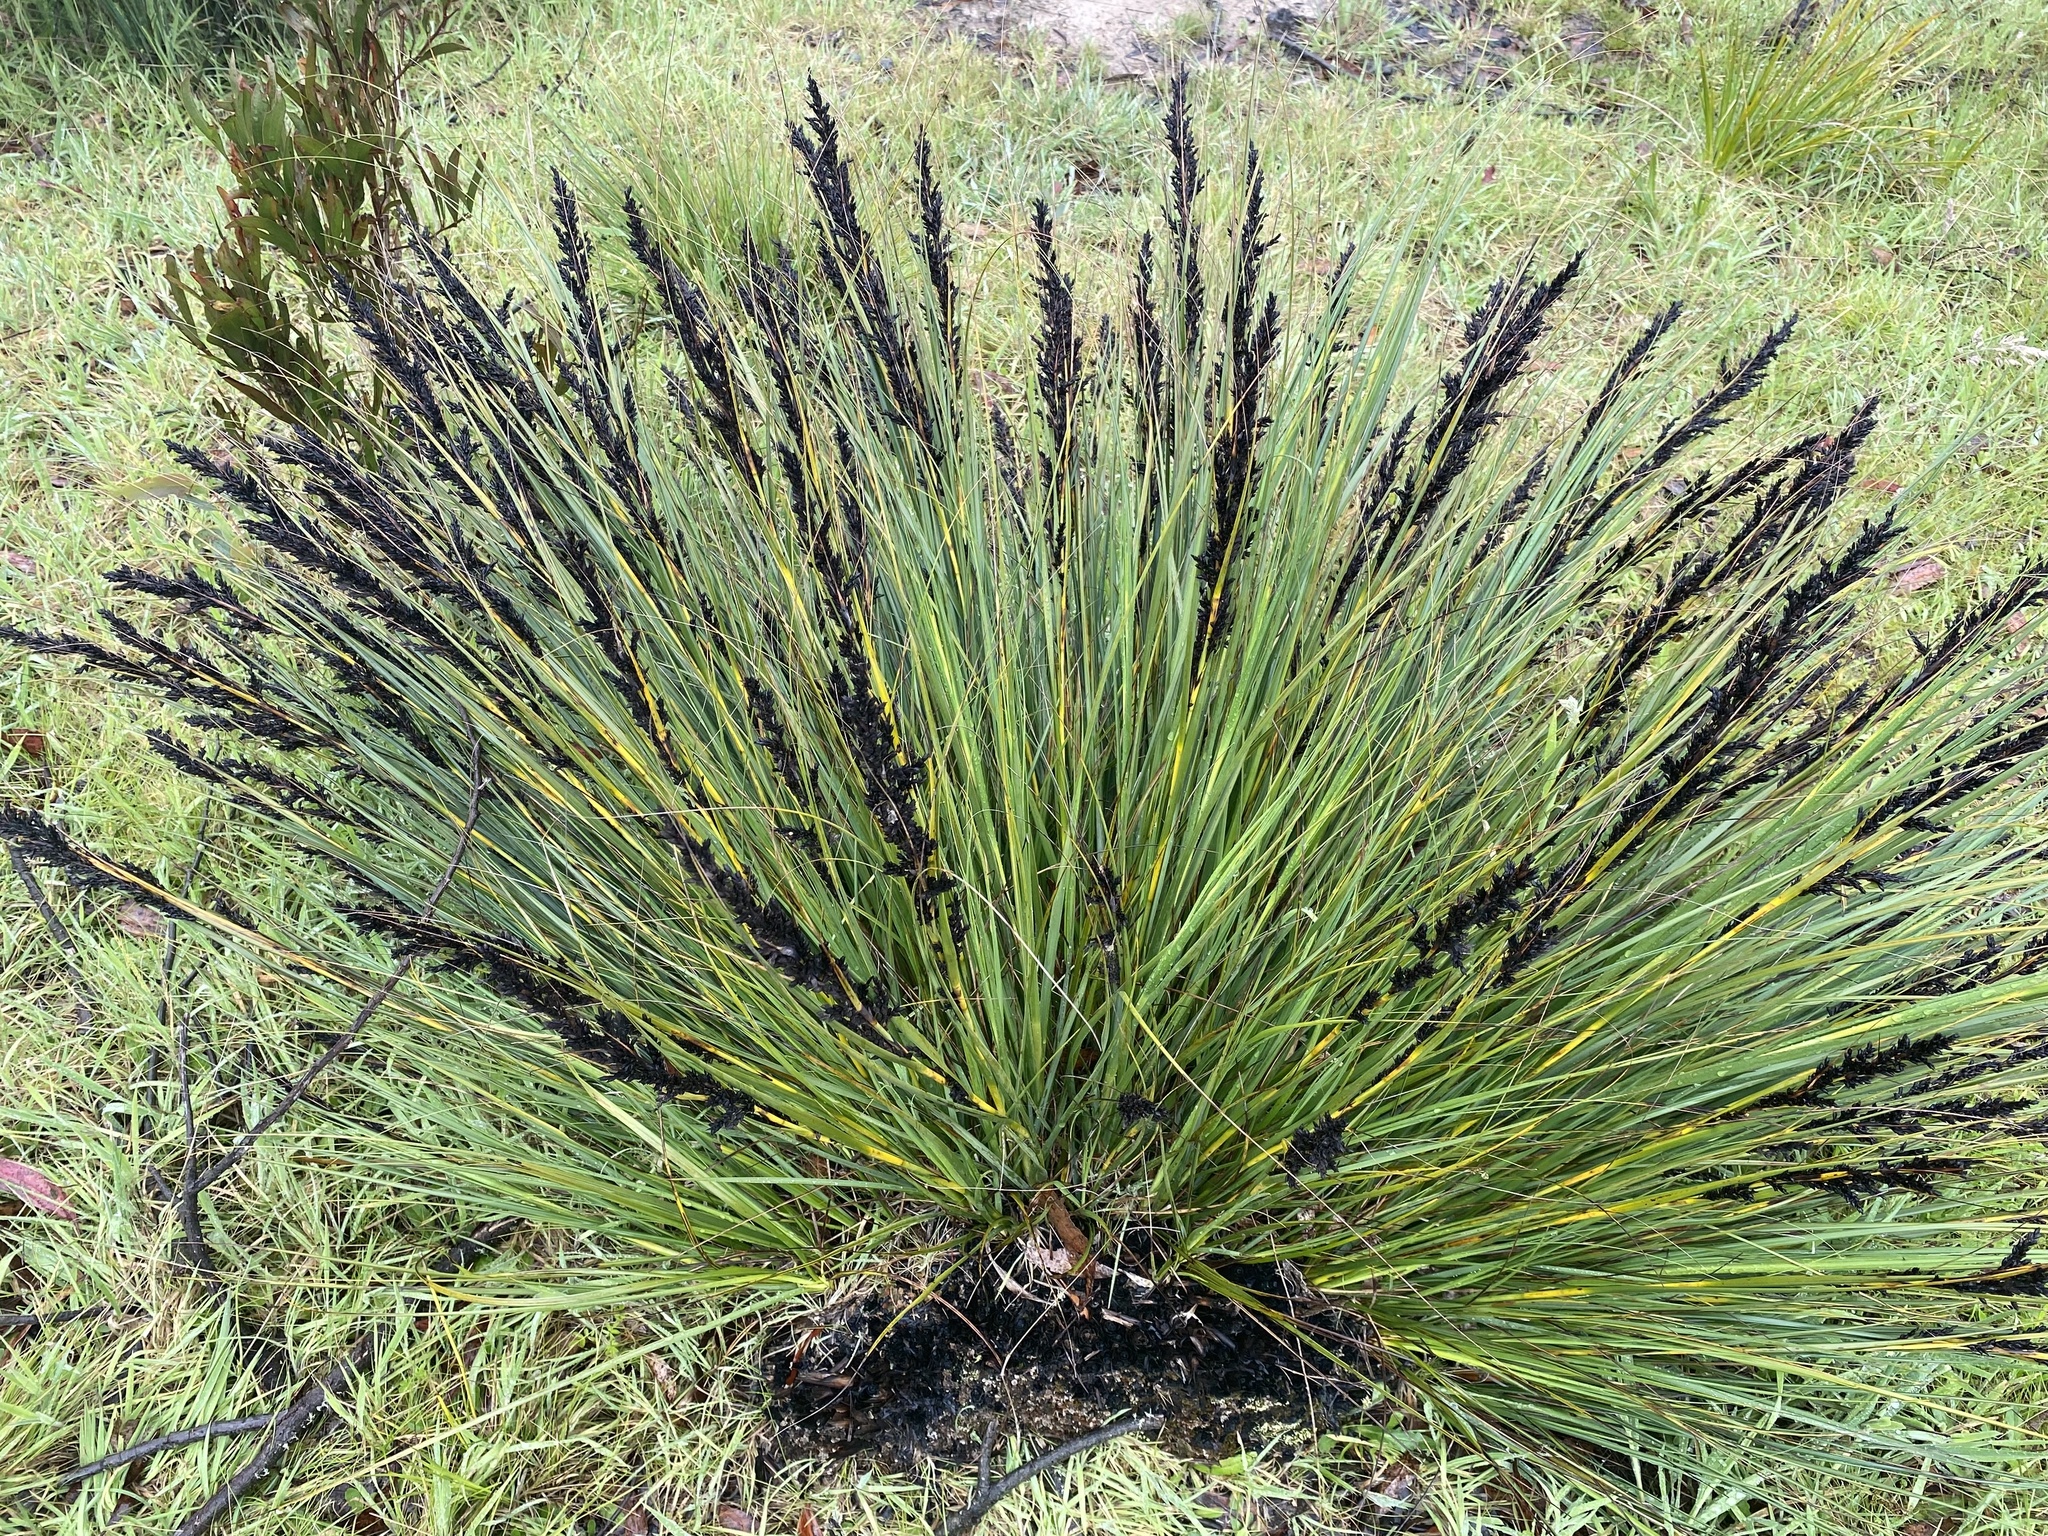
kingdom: Plantae
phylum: Tracheophyta
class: Liliopsida
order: Poales
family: Cyperaceae
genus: Gahnia
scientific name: Gahnia subaequiglumis
